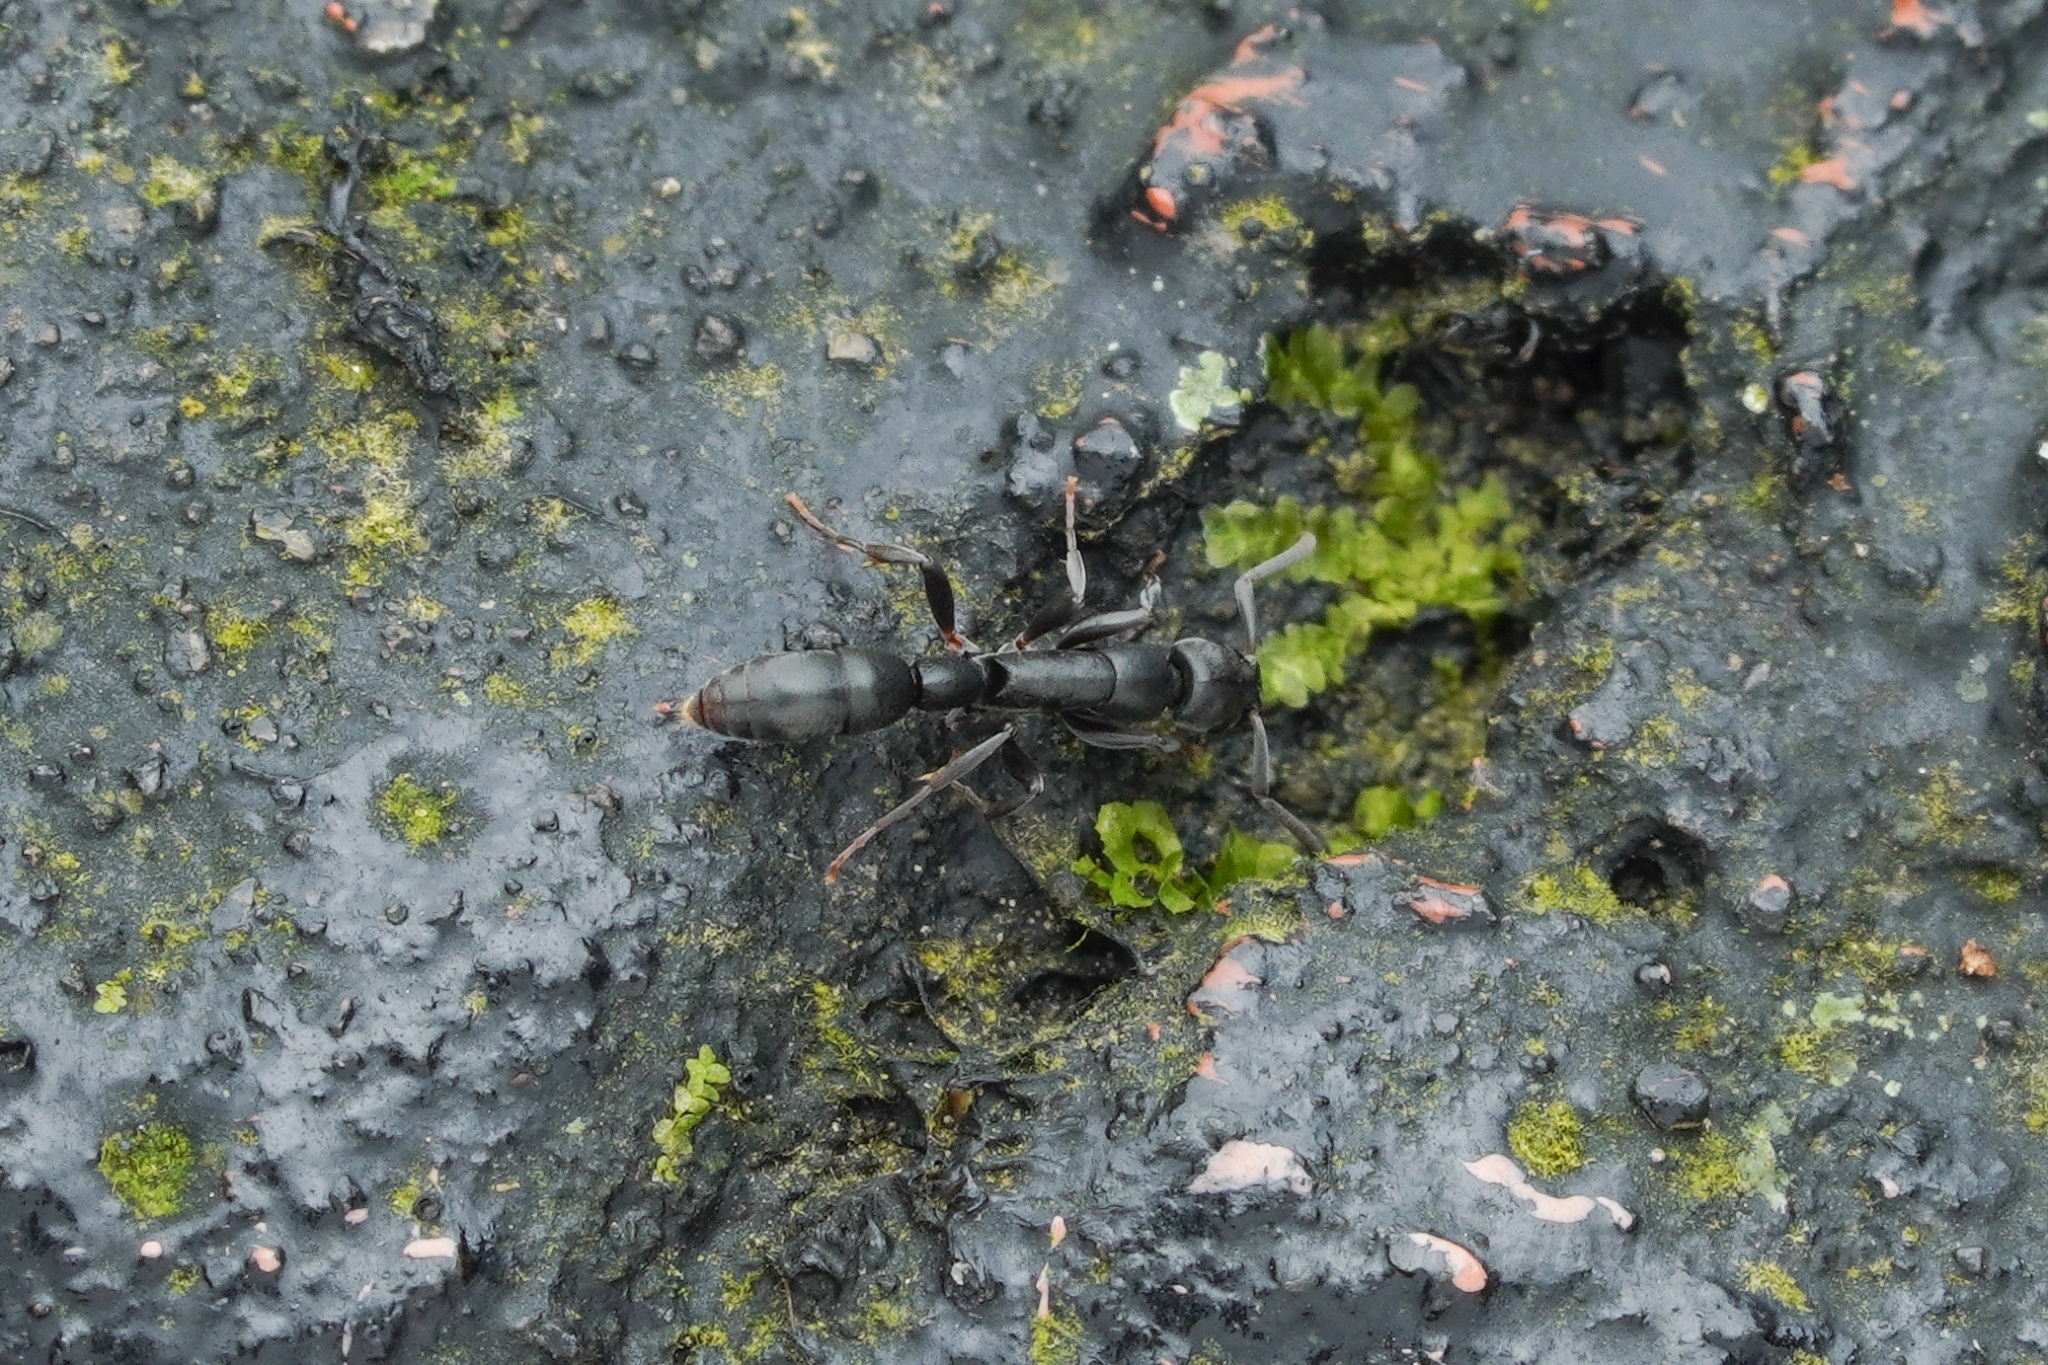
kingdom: Animalia
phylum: Arthropoda
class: Insecta
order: Hymenoptera
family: Formicidae
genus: Platythyrea
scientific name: Platythyrea parallela
